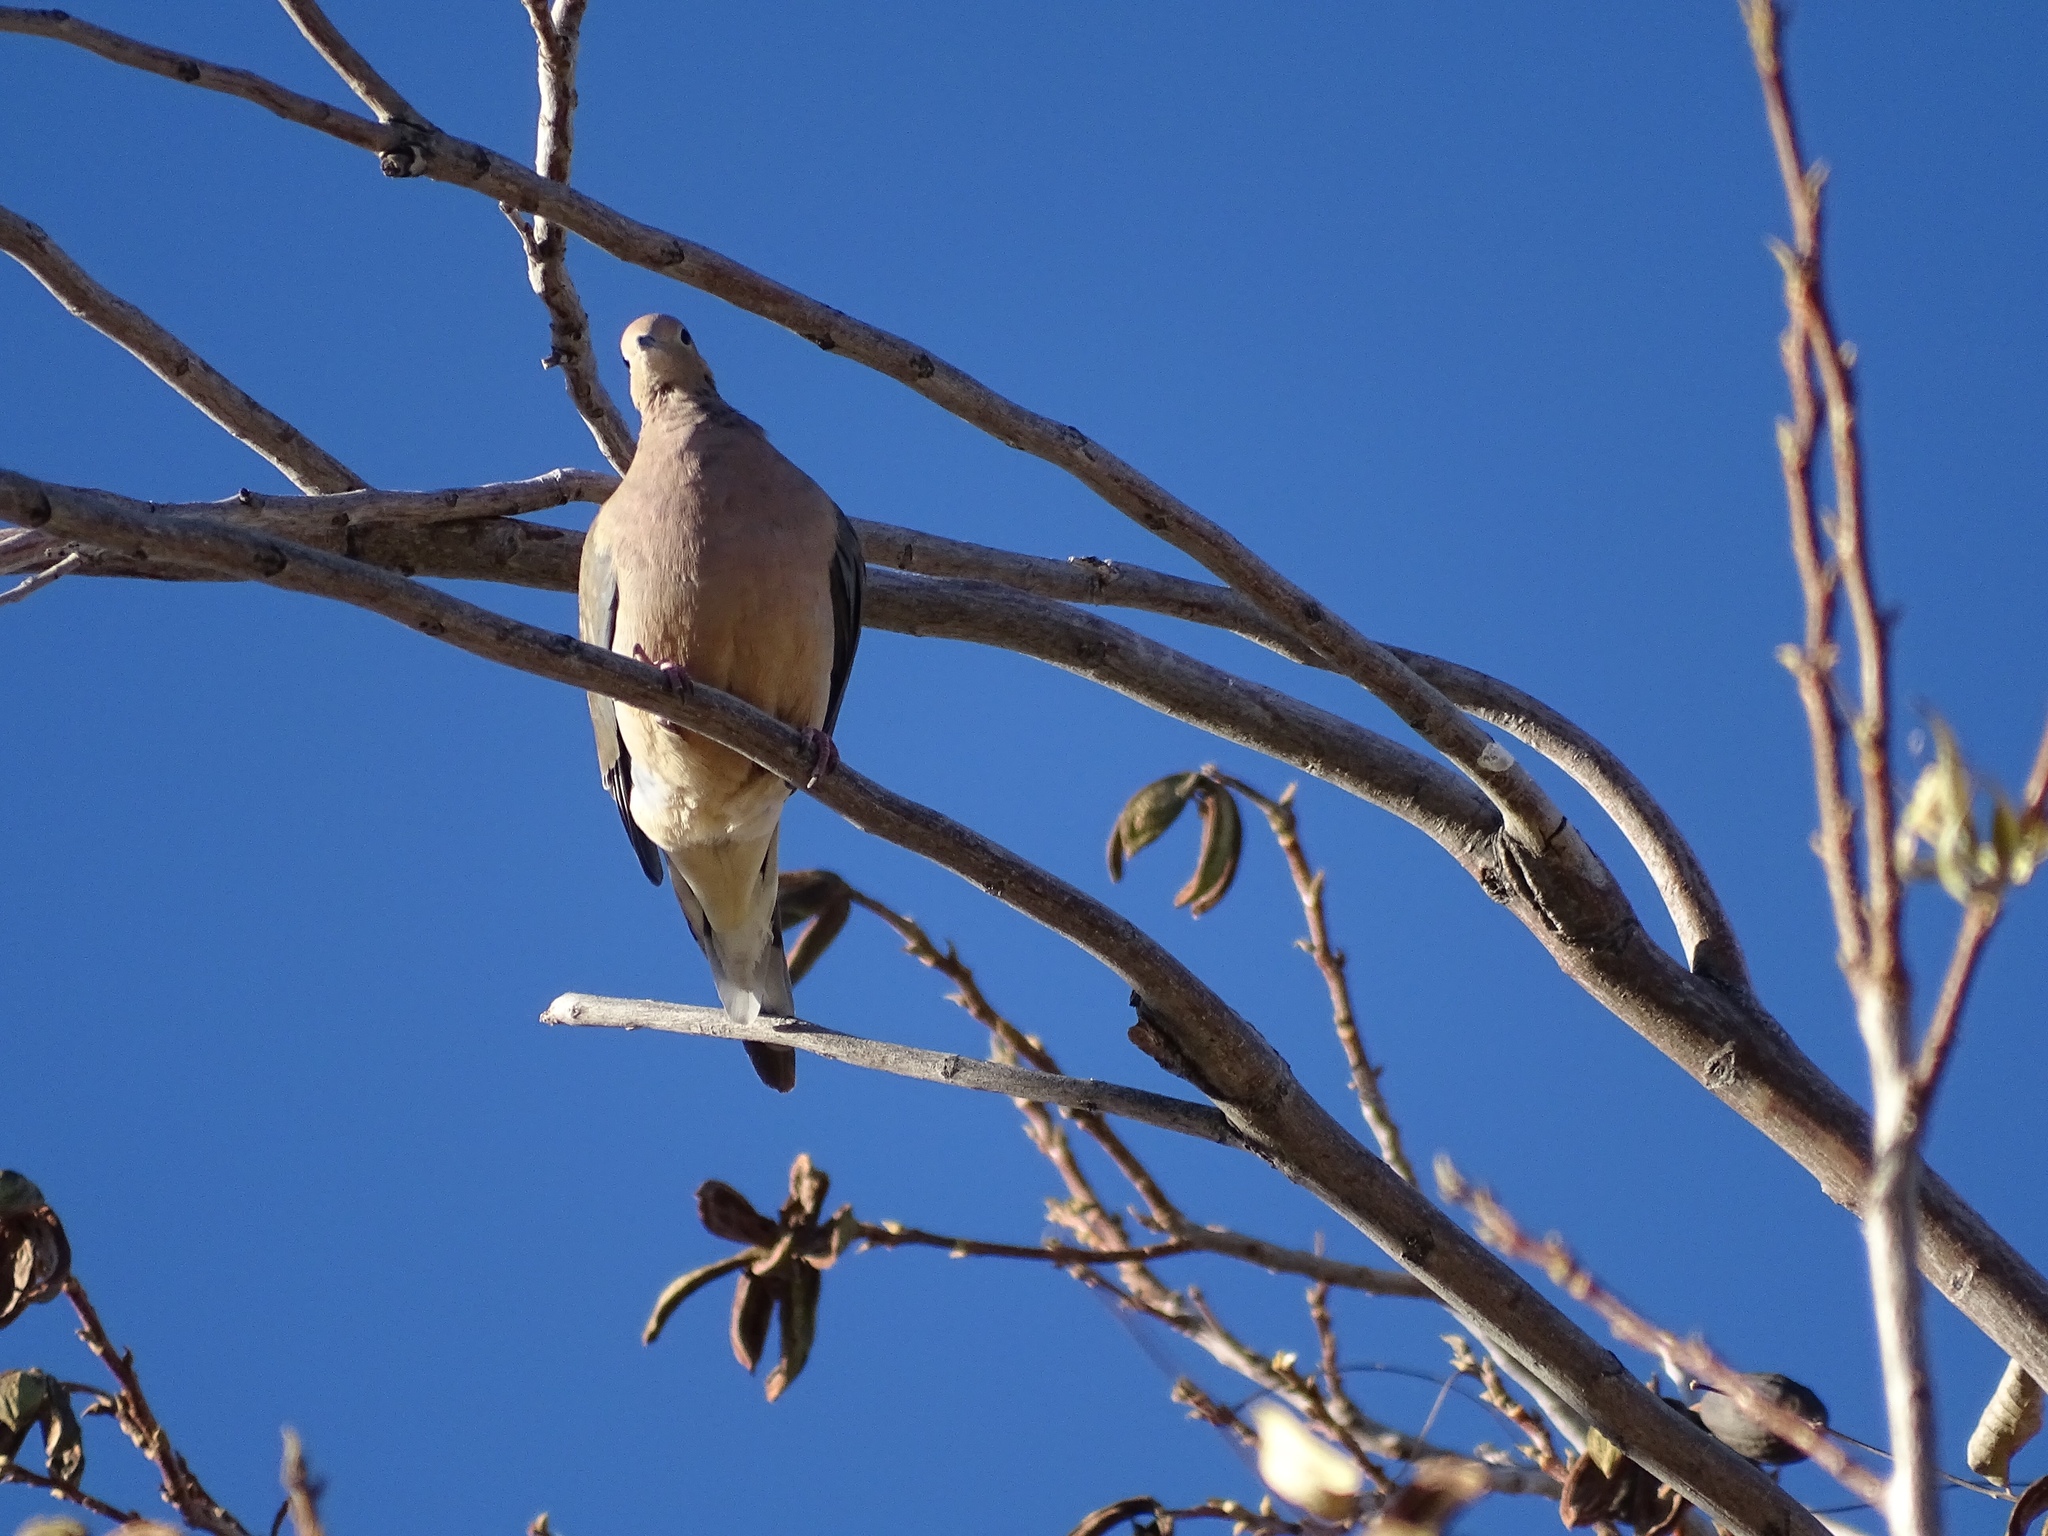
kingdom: Animalia
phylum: Chordata
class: Aves
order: Columbiformes
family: Columbidae
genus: Zenaida
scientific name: Zenaida macroura
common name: Mourning dove
